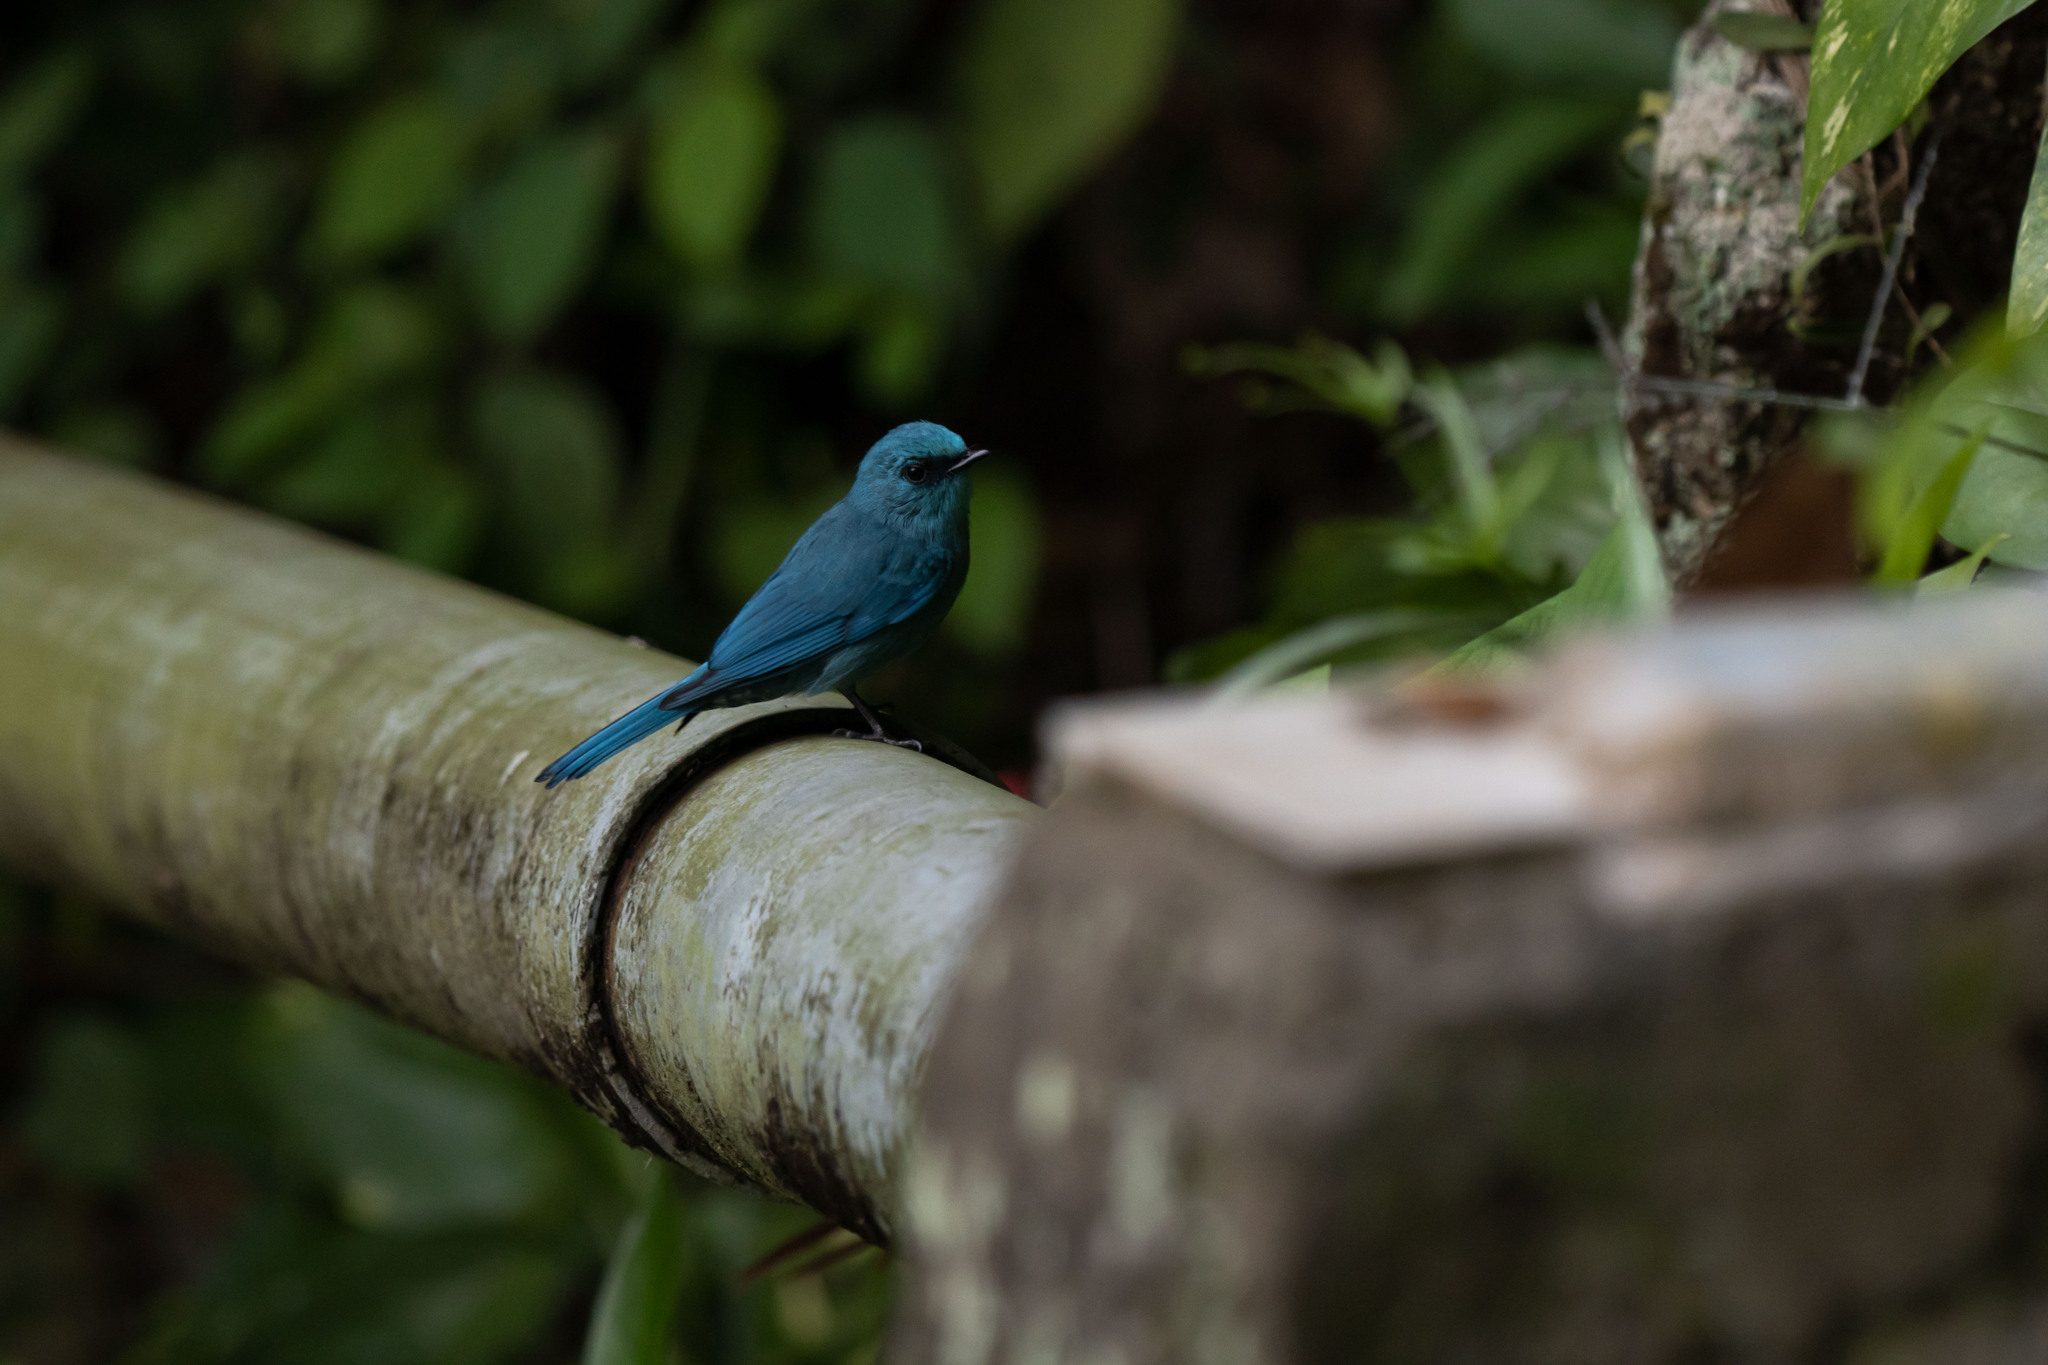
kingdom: Animalia
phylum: Chordata
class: Aves
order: Passeriformes
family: Muscicapidae
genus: Eumyias
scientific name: Eumyias thalassinus
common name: Verditer flycatcher
